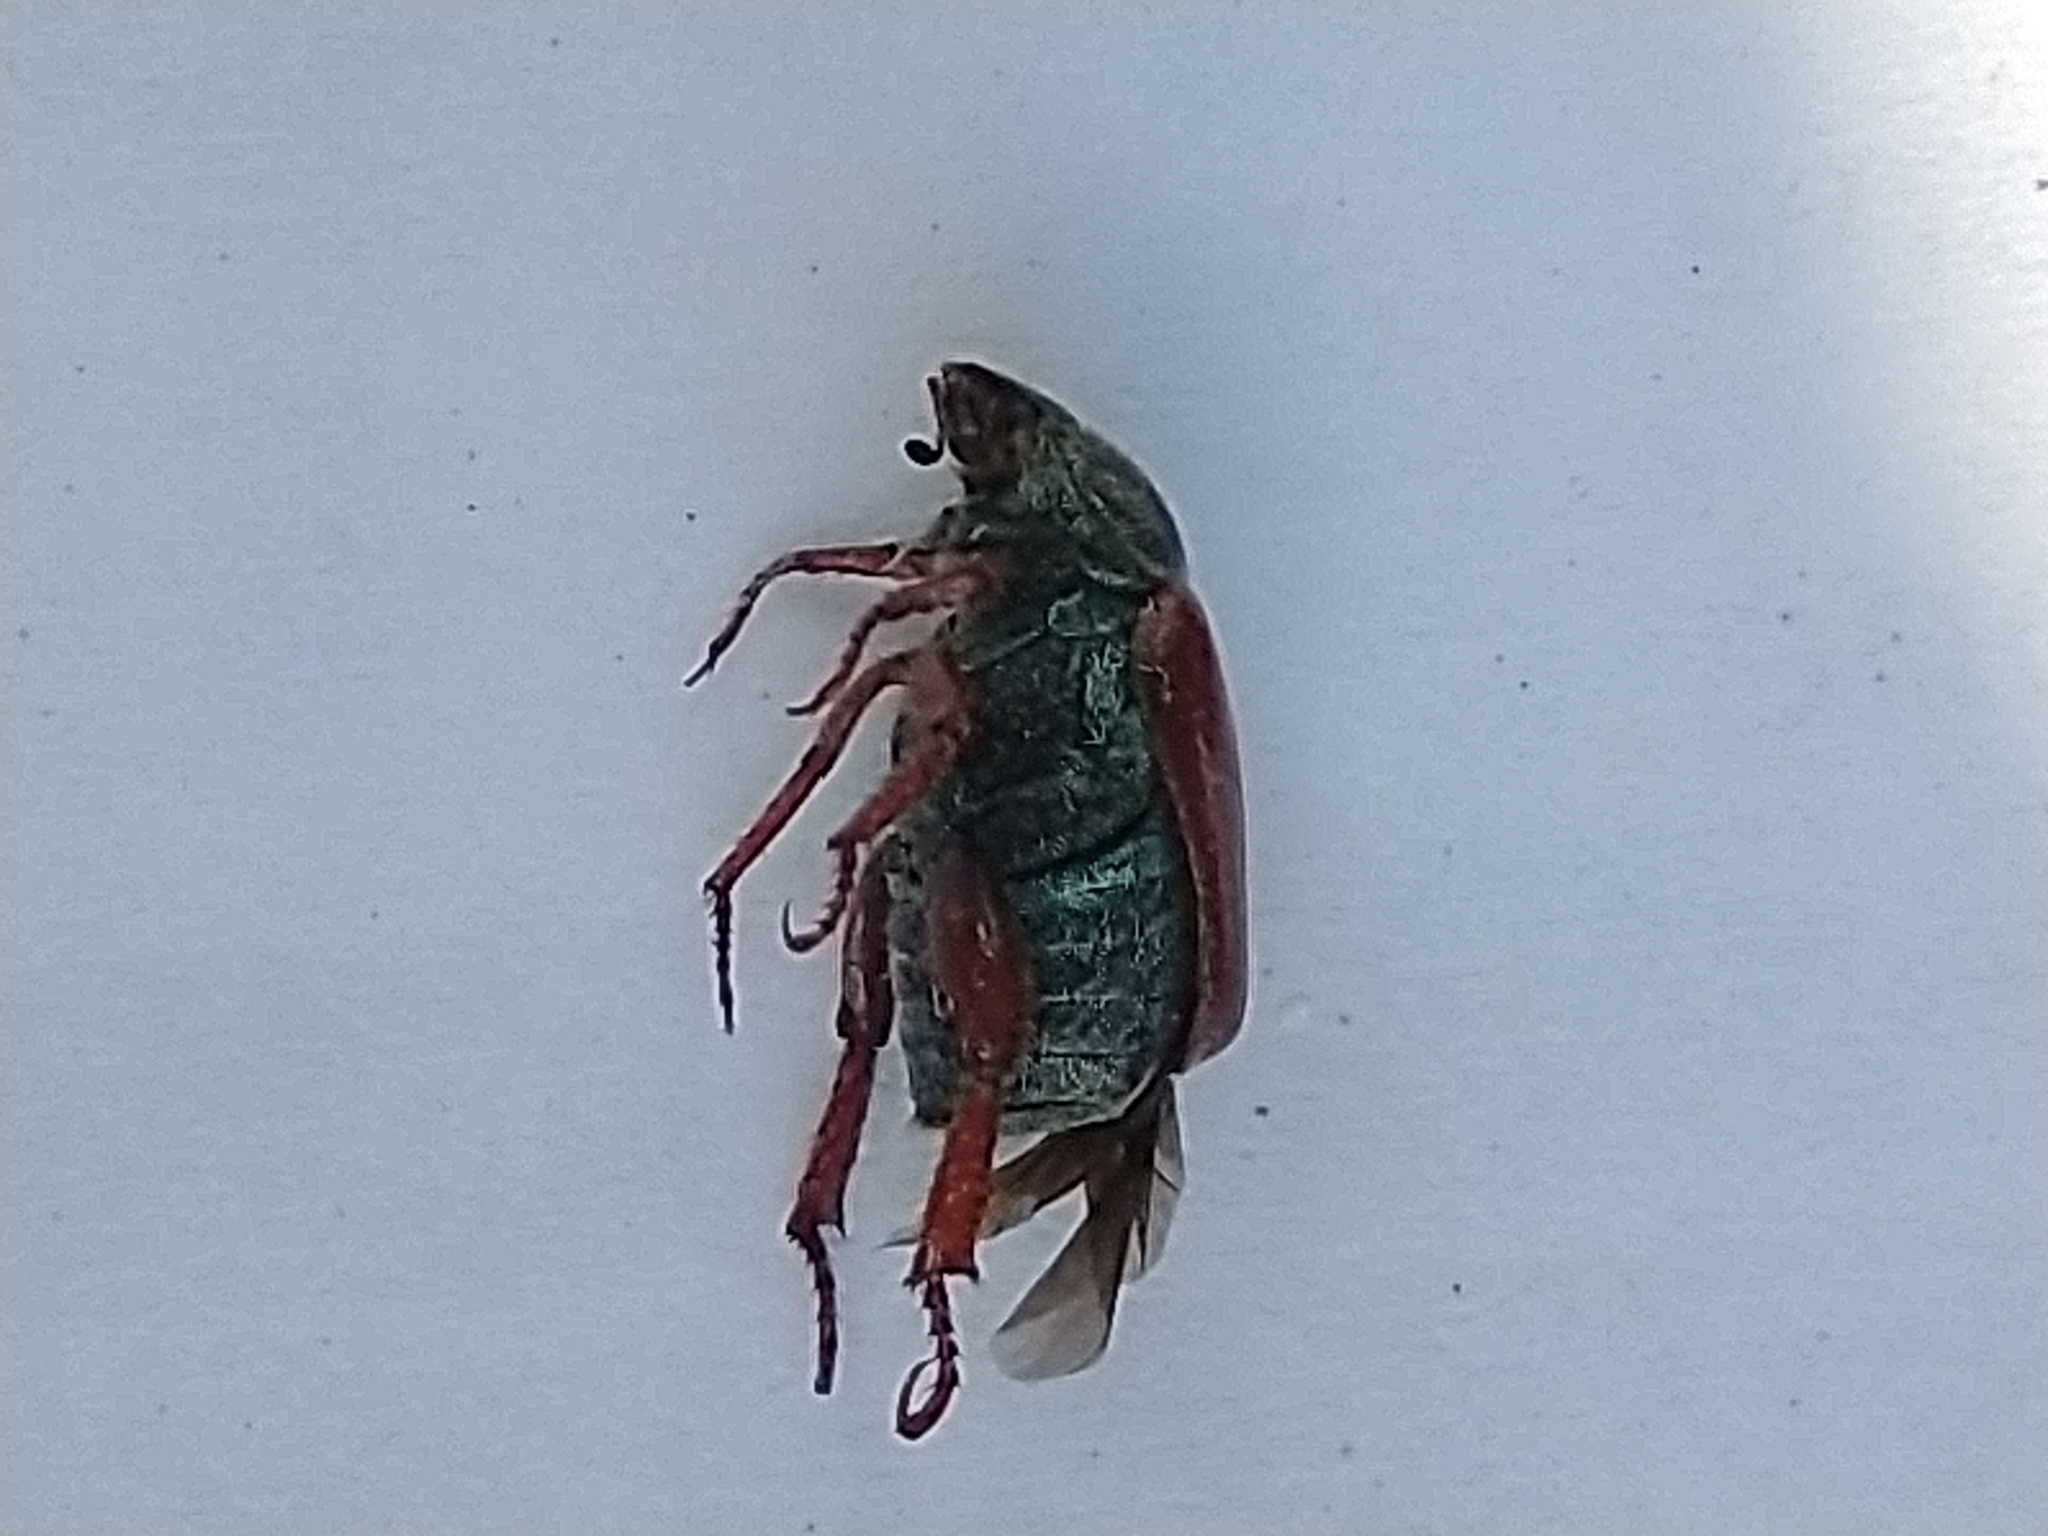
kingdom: Animalia
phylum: Arthropoda
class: Insecta
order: Coleoptera
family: Scarabaeidae
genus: Hoplia
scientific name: Hoplia philanthus
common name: Welsh chafer
